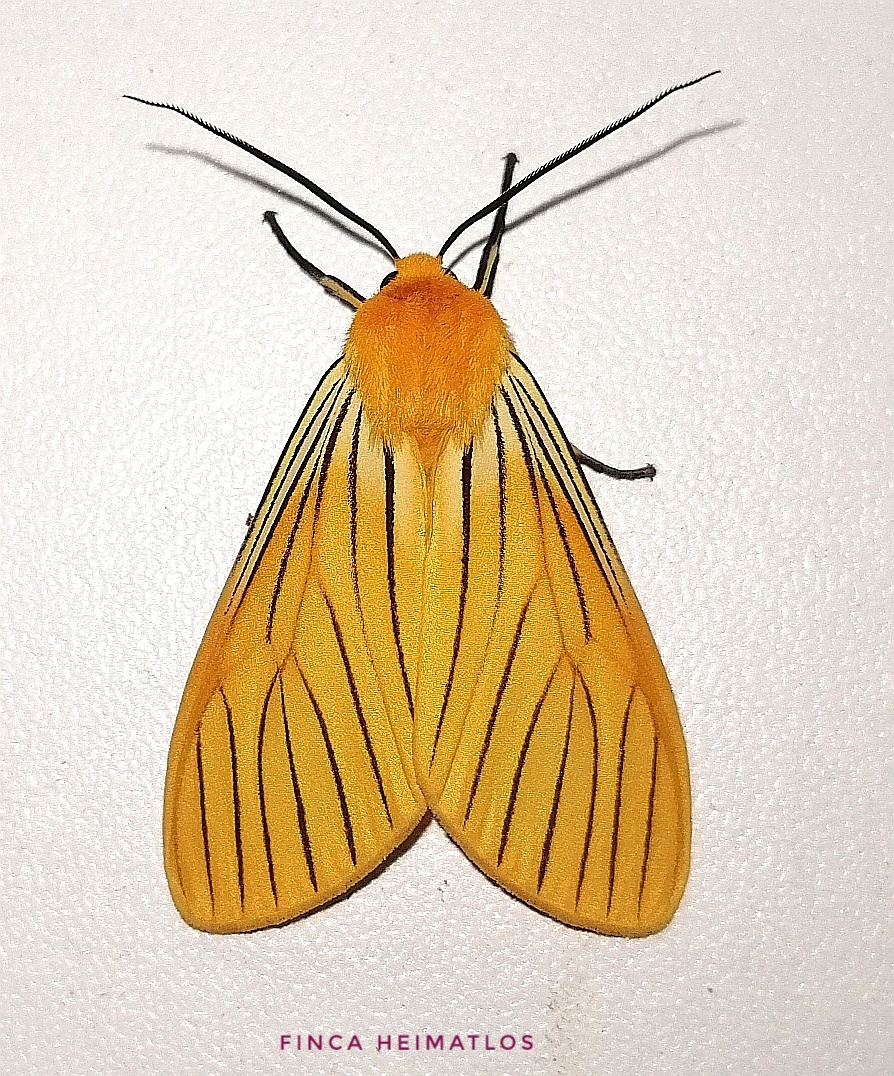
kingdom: Animalia
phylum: Arthropoda
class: Insecta
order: Lepidoptera
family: Erebidae
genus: Pseudischnocampa
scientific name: Pseudischnocampa
